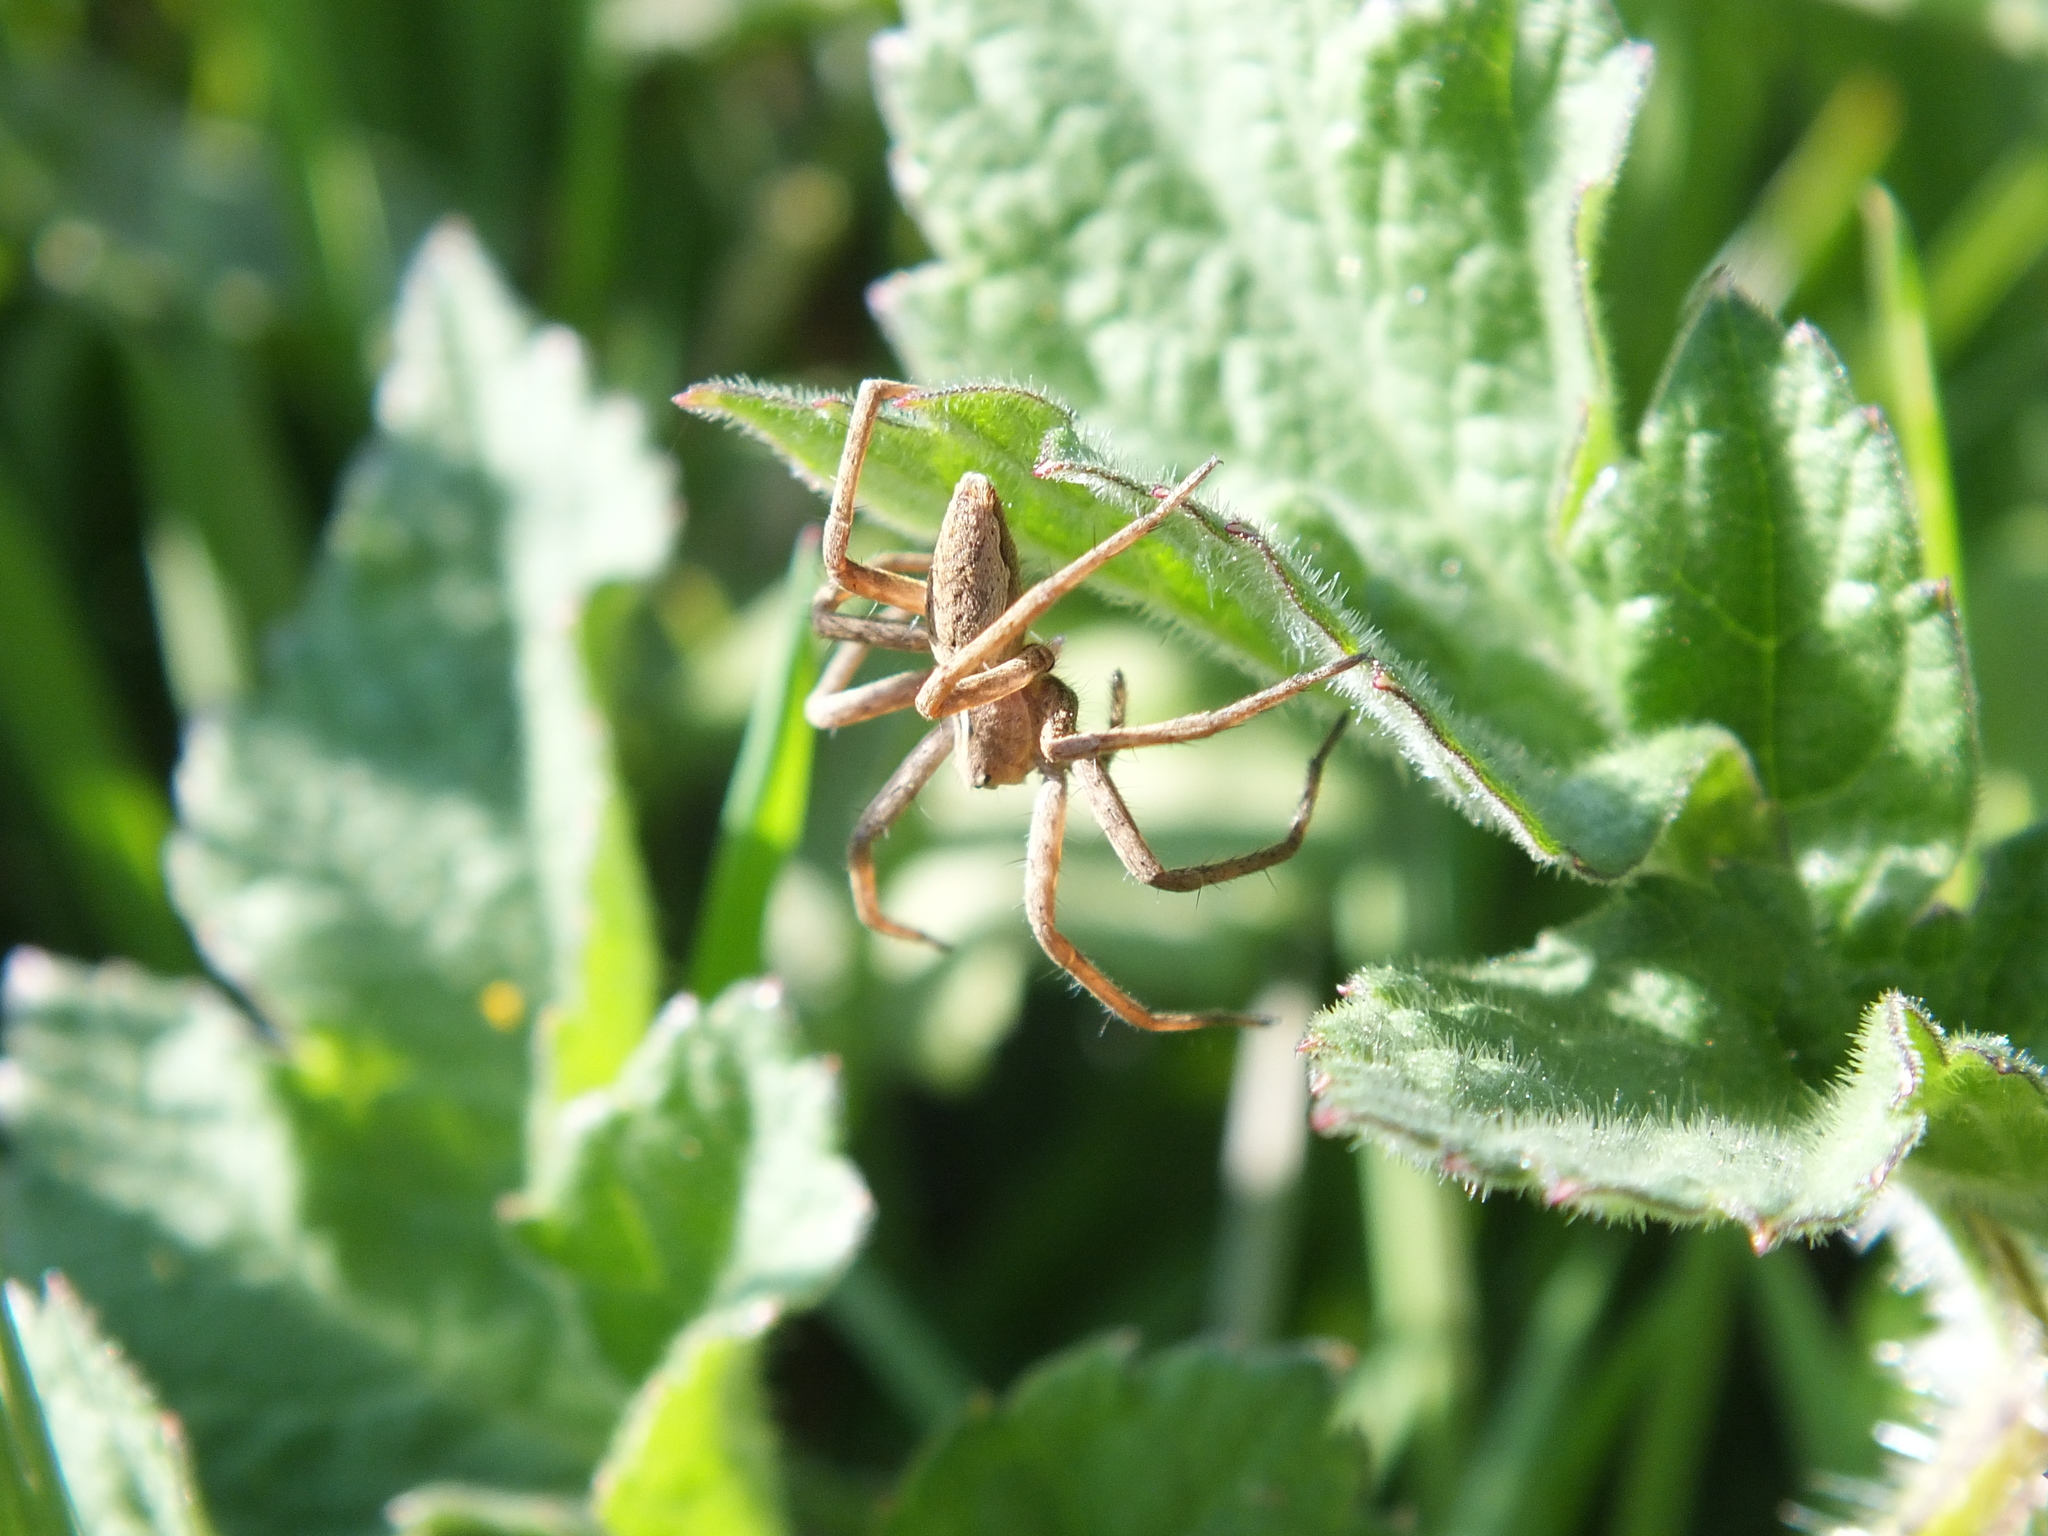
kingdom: Animalia
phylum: Arthropoda
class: Arachnida
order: Araneae
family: Pisauridae
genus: Pisaura
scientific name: Pisaura mirabilis
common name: Tent spider
